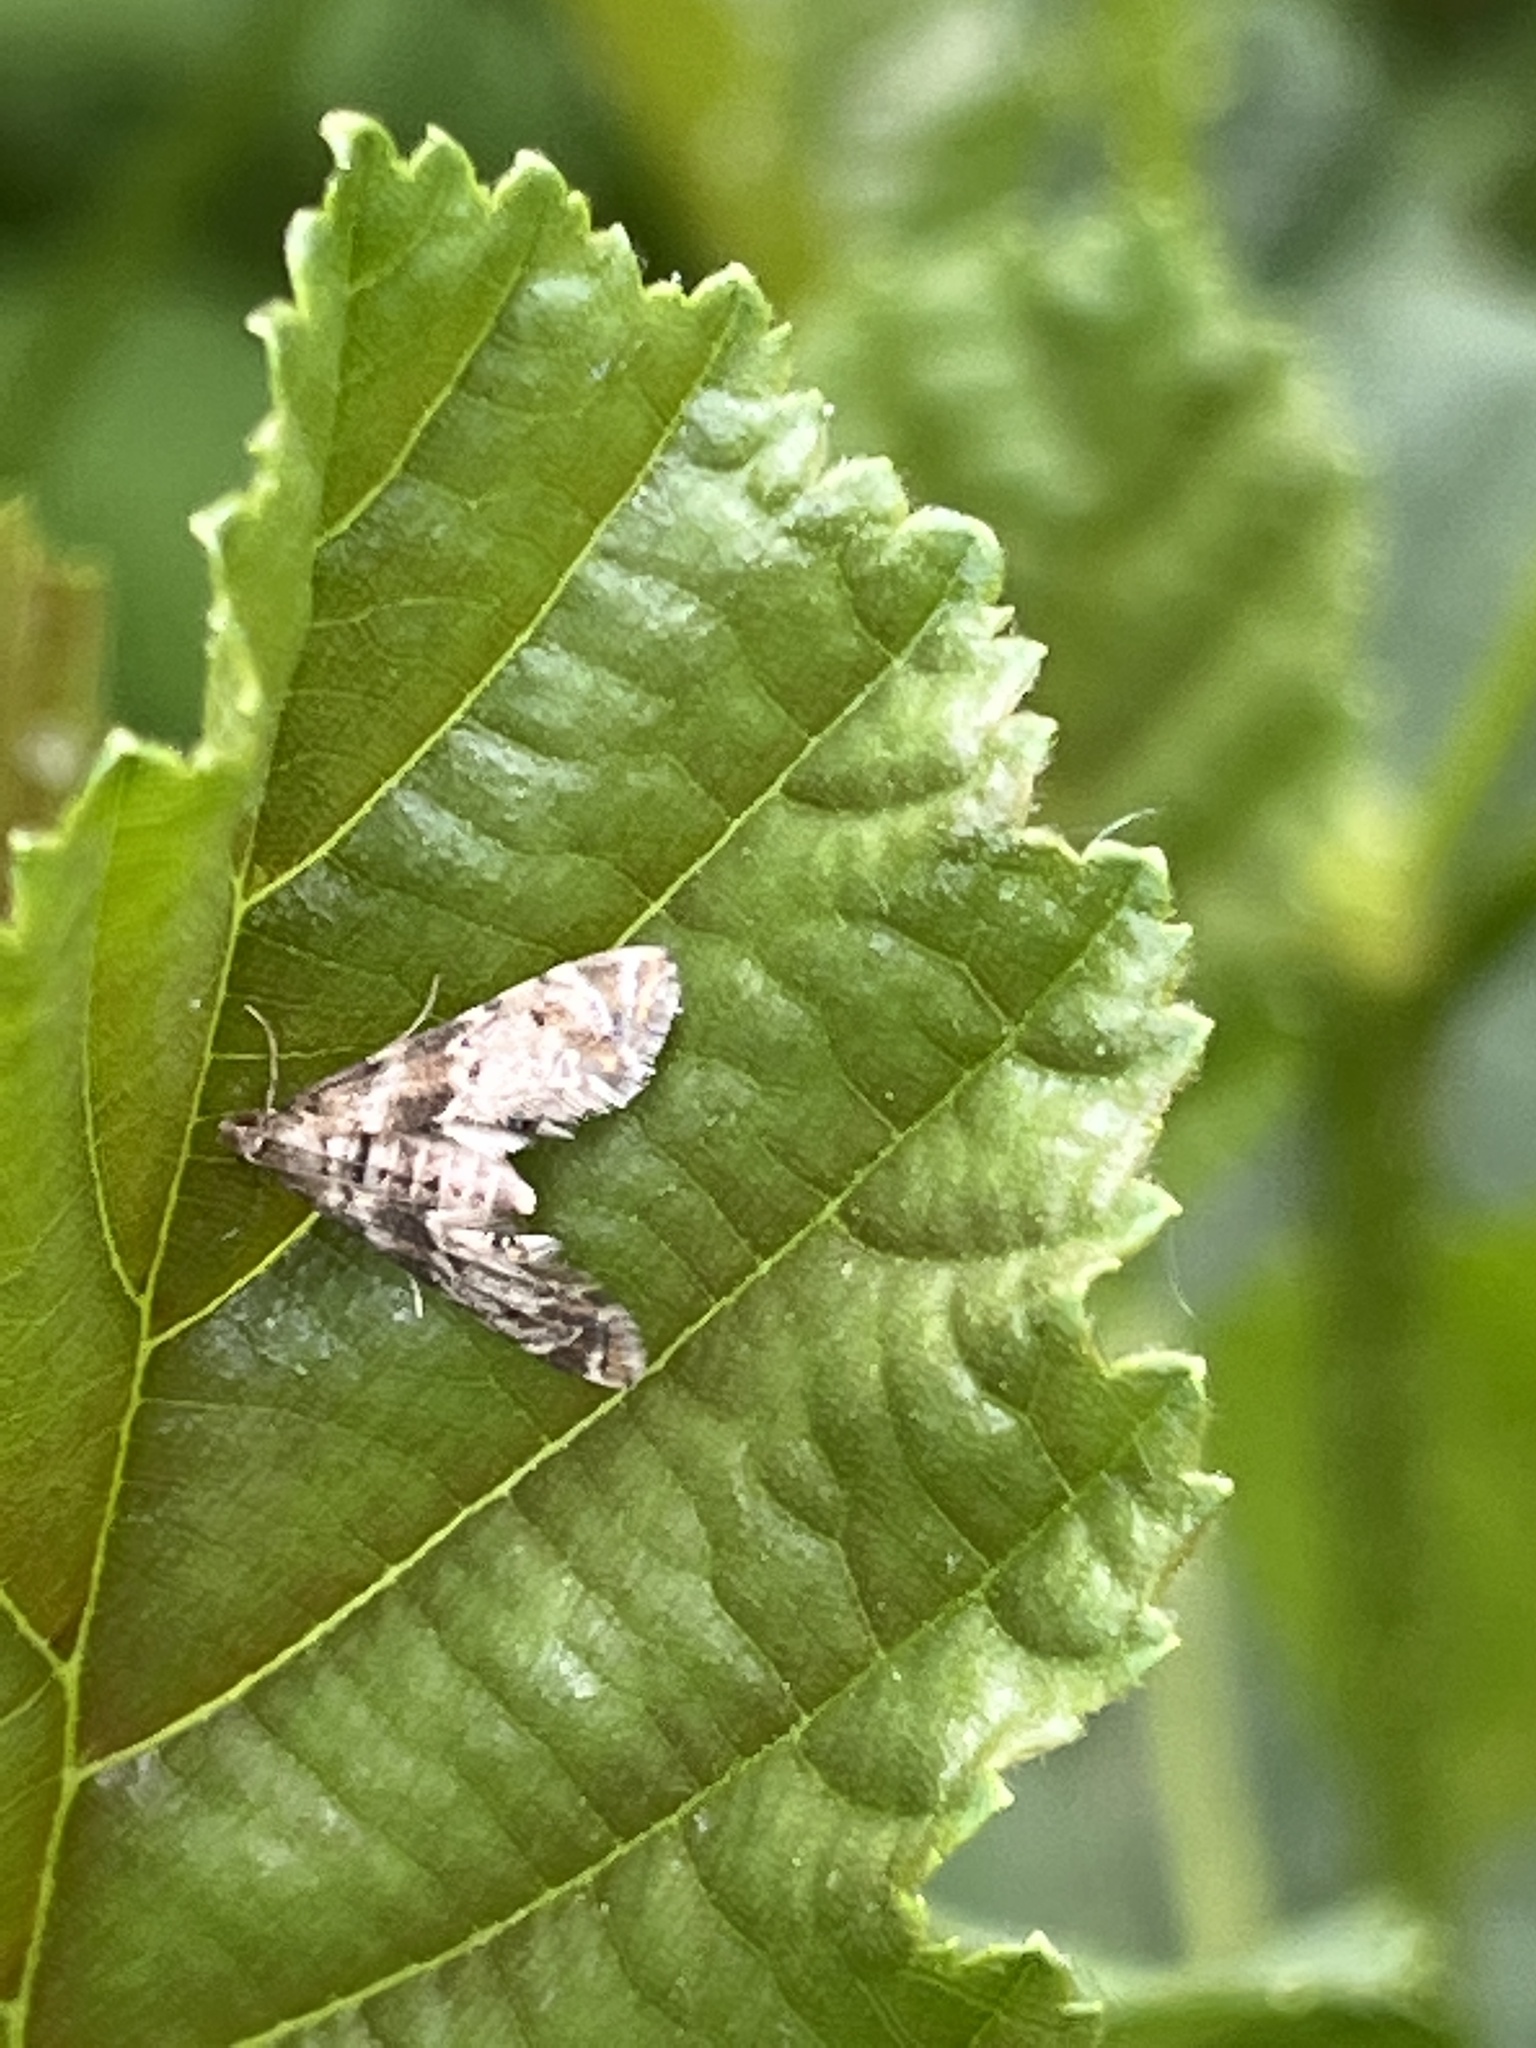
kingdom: Animalia
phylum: Arthropoda
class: Insecta
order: Lepidoptera
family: Crambidae
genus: Petrophila
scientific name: Petrophila fulicalis
